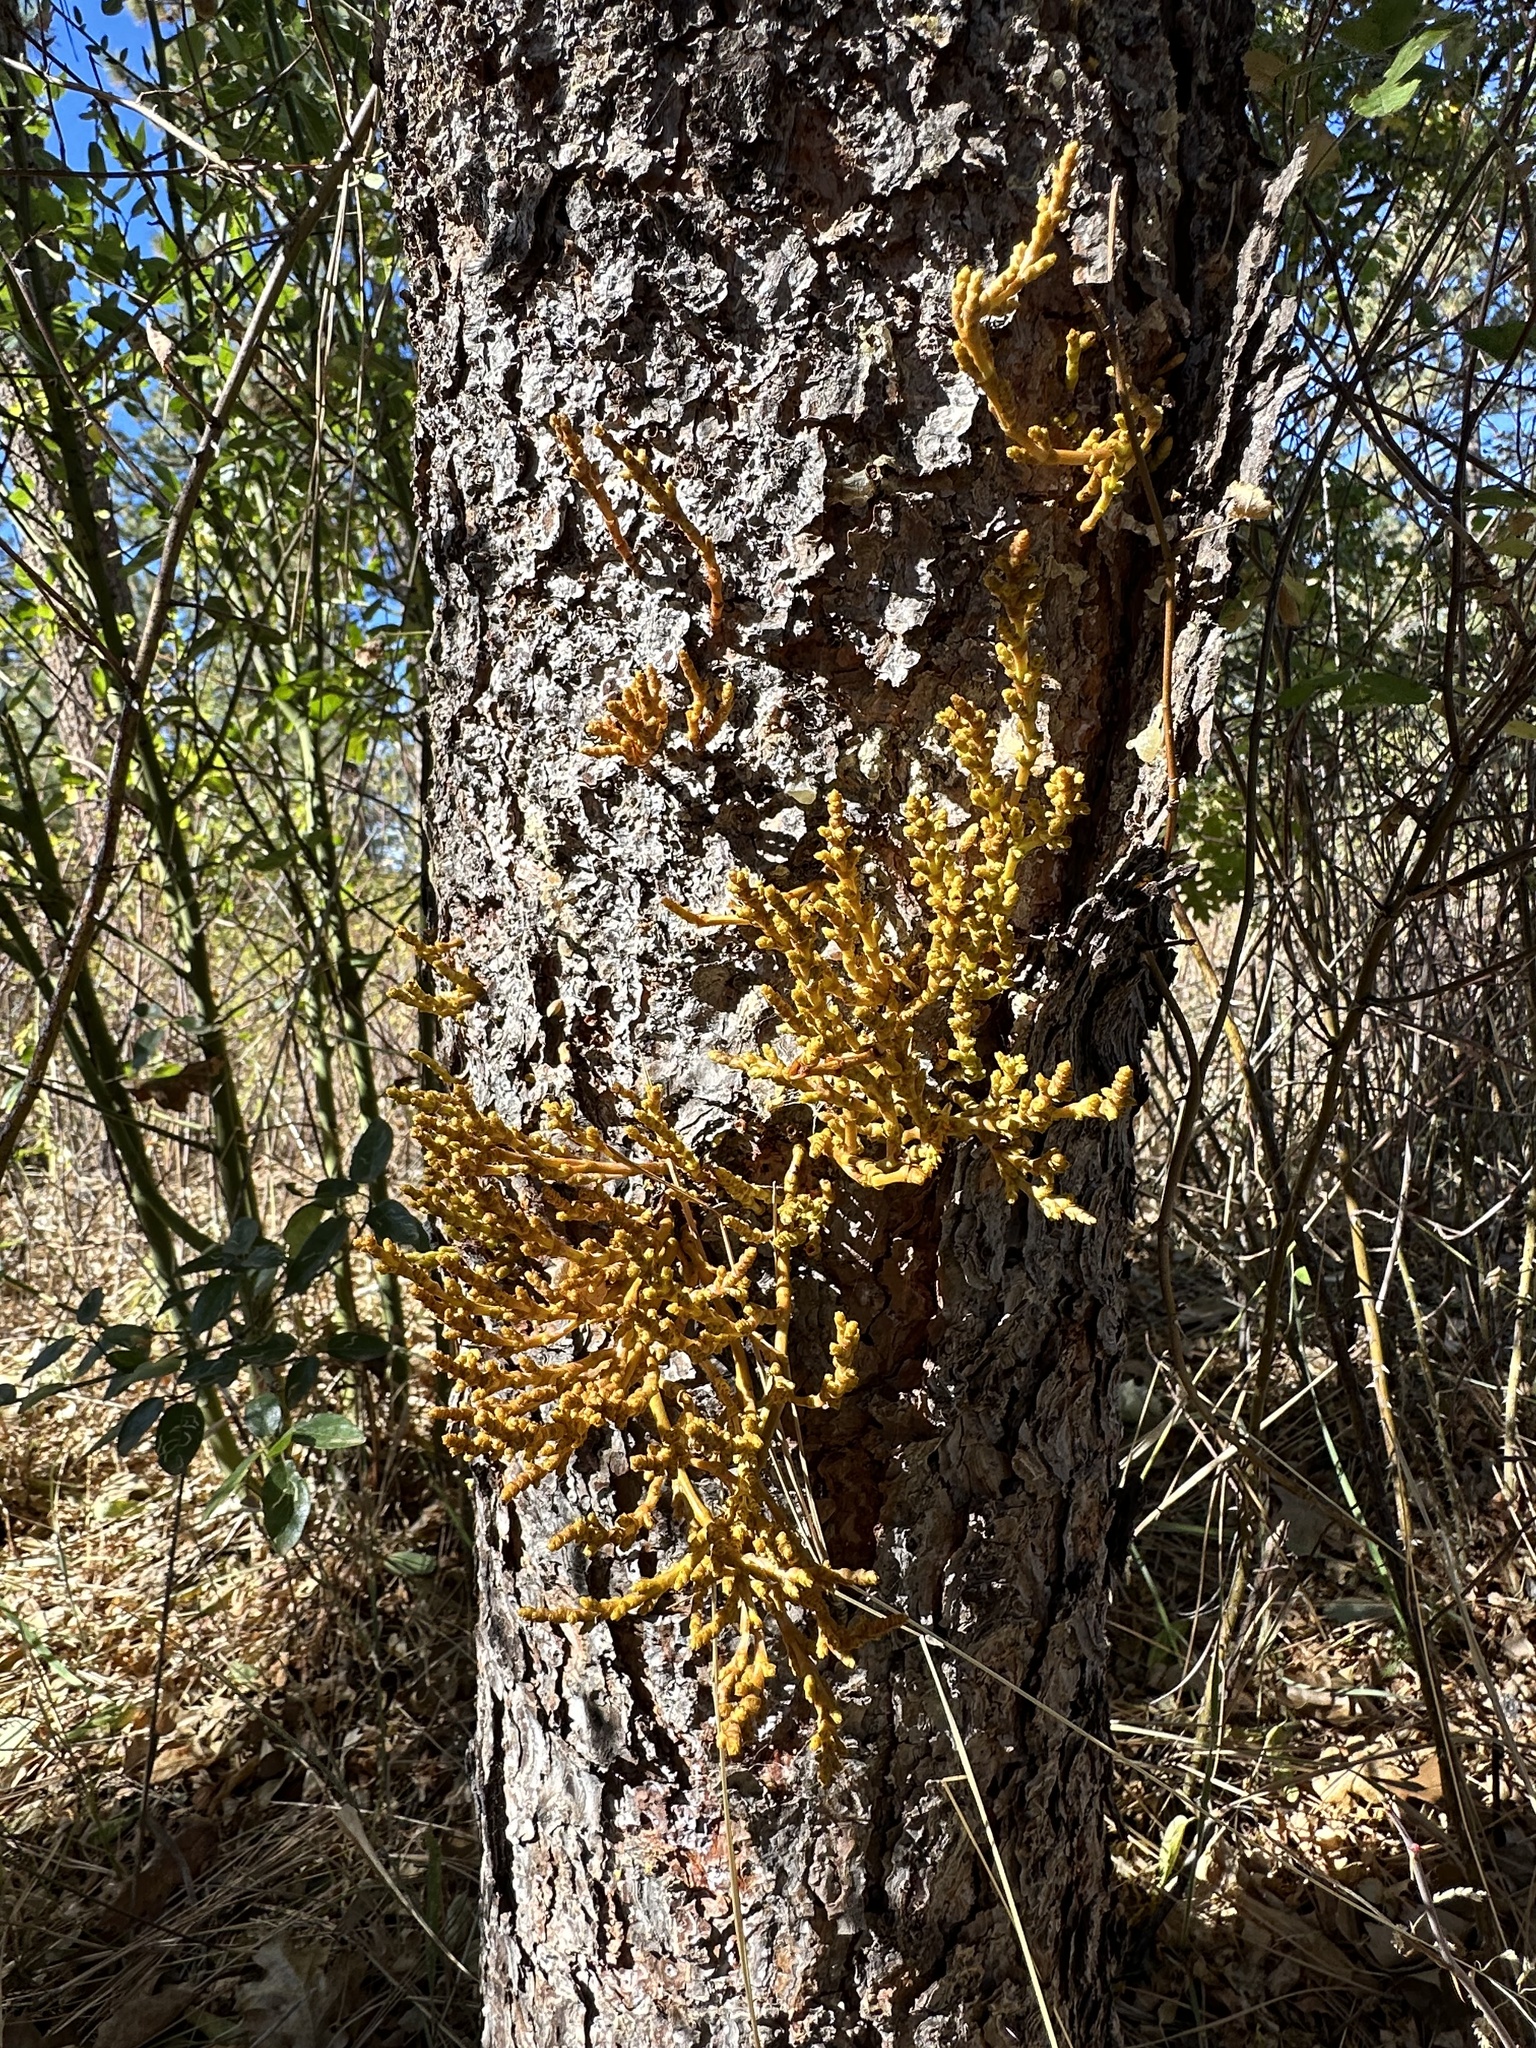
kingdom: Plantae
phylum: Tracheophyta
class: Magnoliopsida
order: Santalales
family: Viscaceae
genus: Arceuthobium
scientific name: Arceuthobium campylopodum
